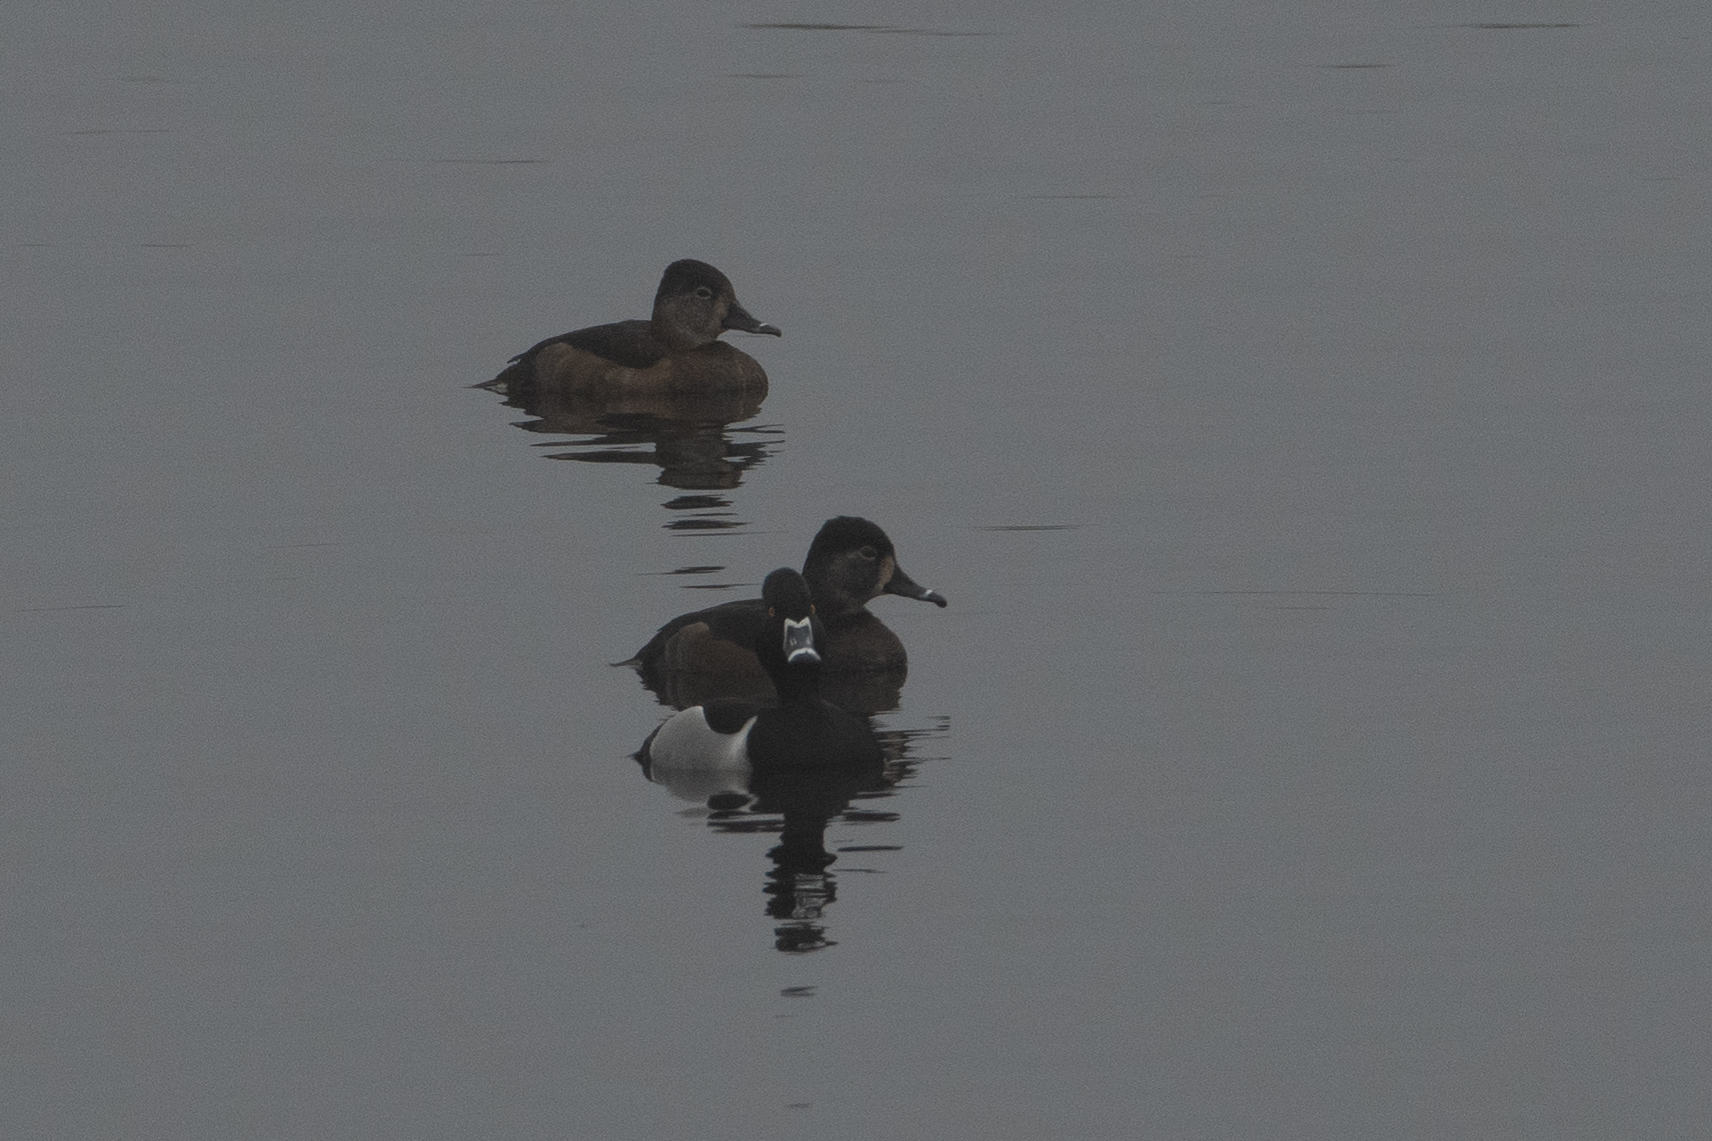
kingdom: Animalia
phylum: Chordata
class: Aves
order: Anseriformes
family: Anatidae
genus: Aythya
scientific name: Aythya collaris
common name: Ring-necked duck
